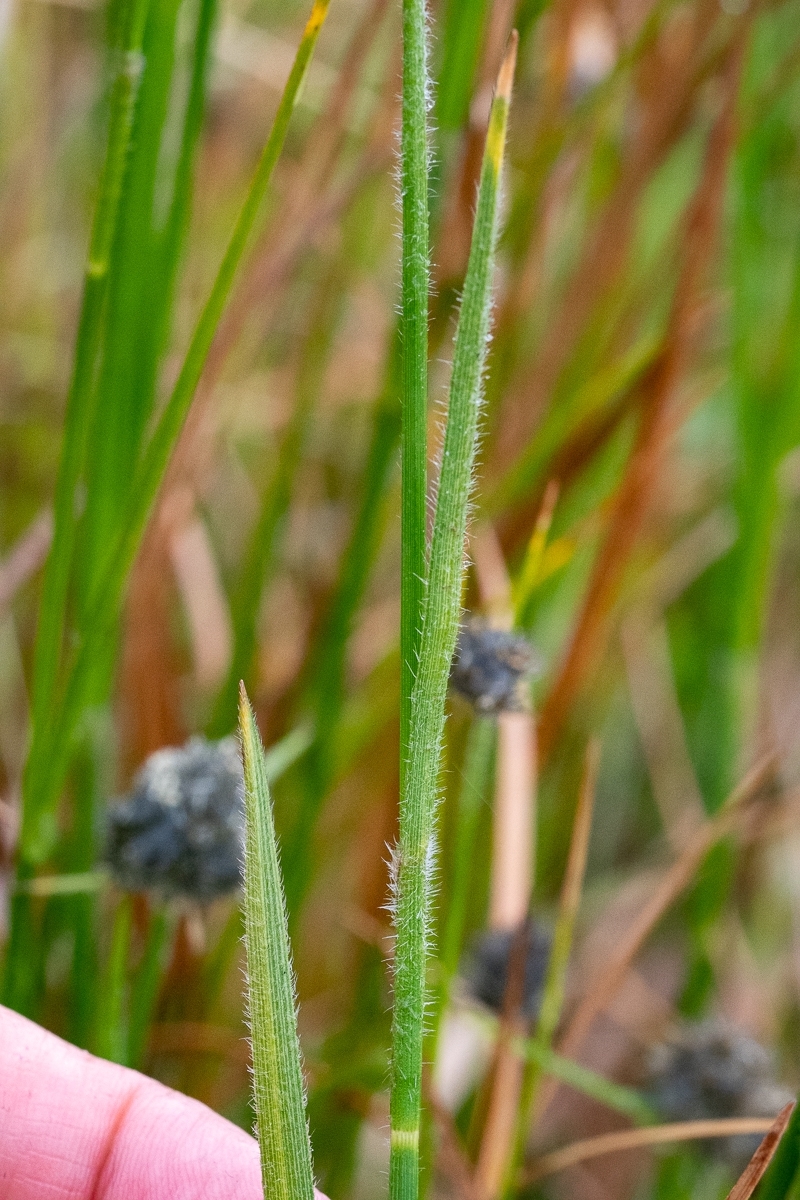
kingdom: Plantae
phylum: Tracheophyta
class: Liliopsida
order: Poales
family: Cyperaceae
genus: Fuirena
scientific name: Fuirena hirsuta
